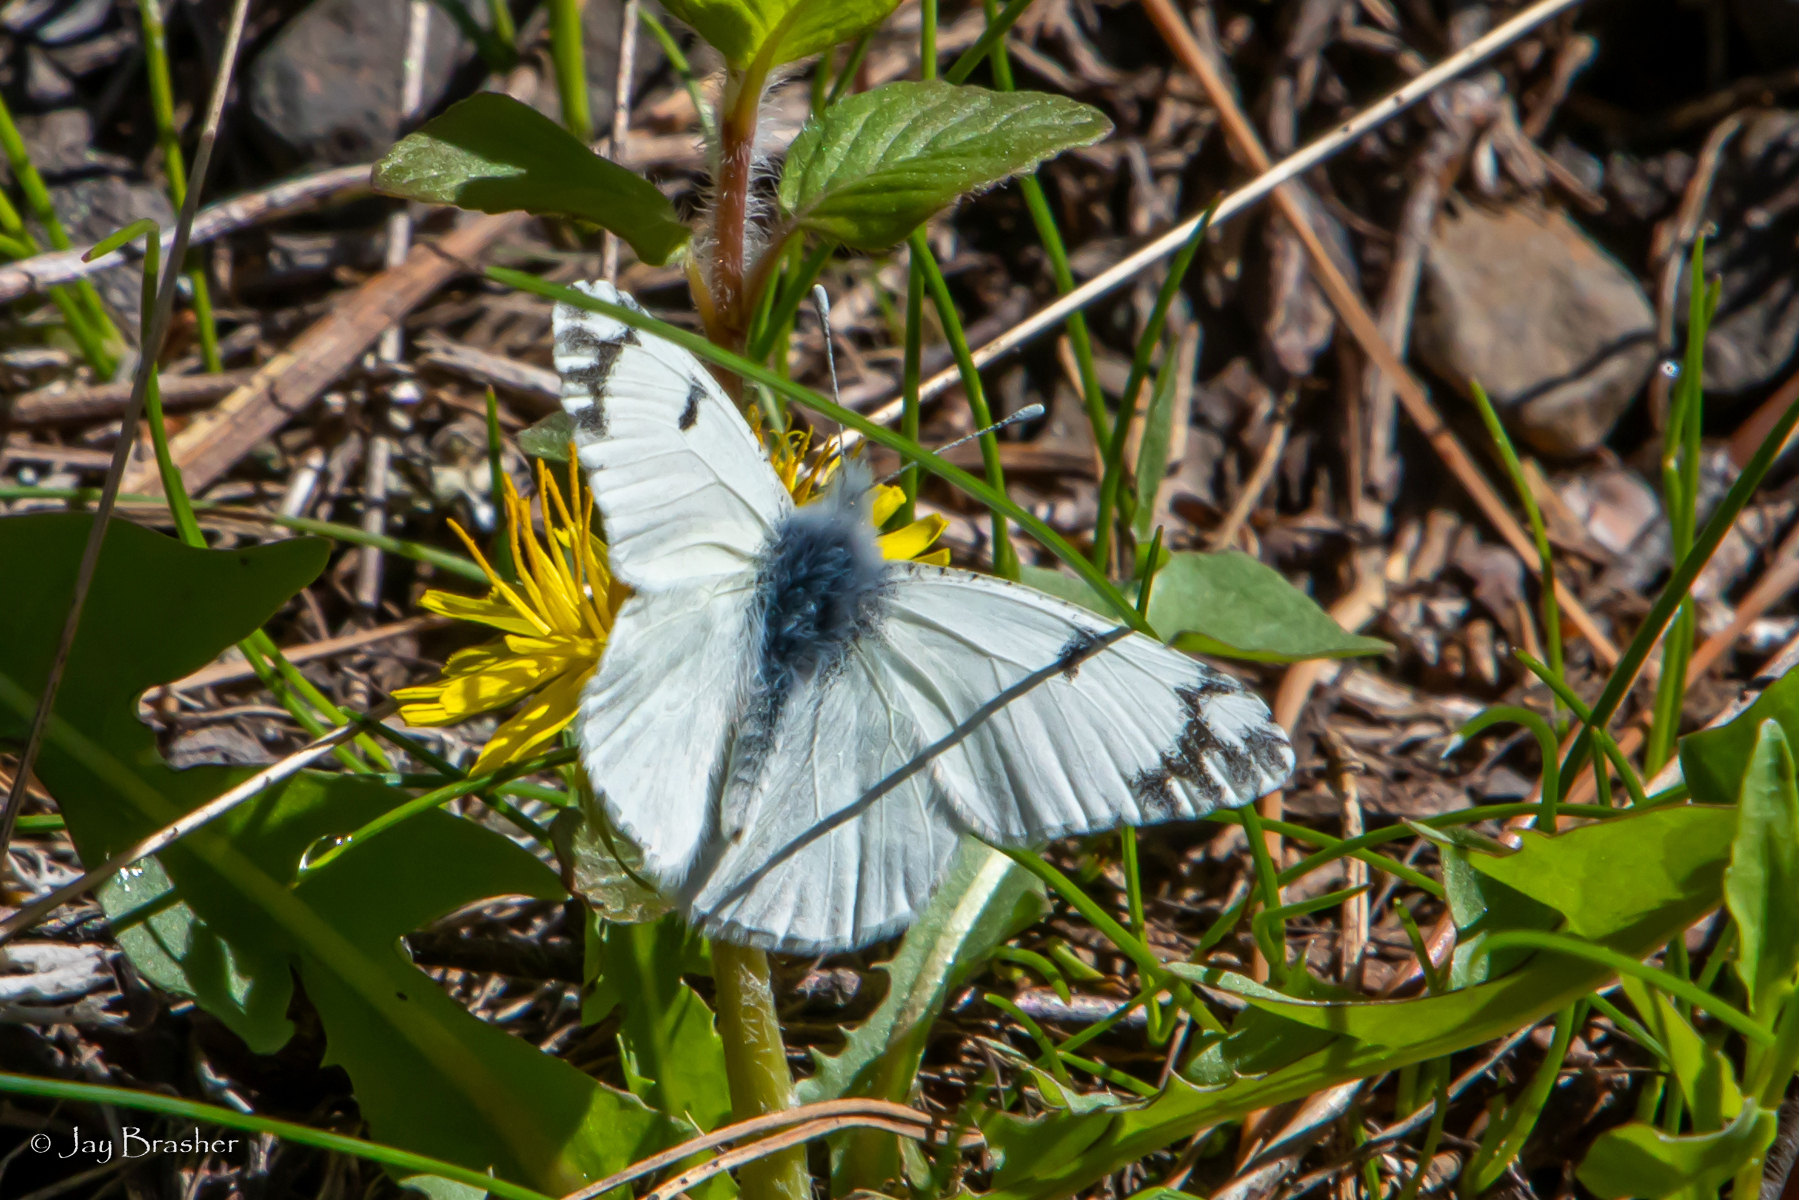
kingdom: Animalia
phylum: Arthropoda
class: Insecta
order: Lepidoptera
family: Pieridae
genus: Euchloe
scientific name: Euchloe ausonides
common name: Creamy marblewing
